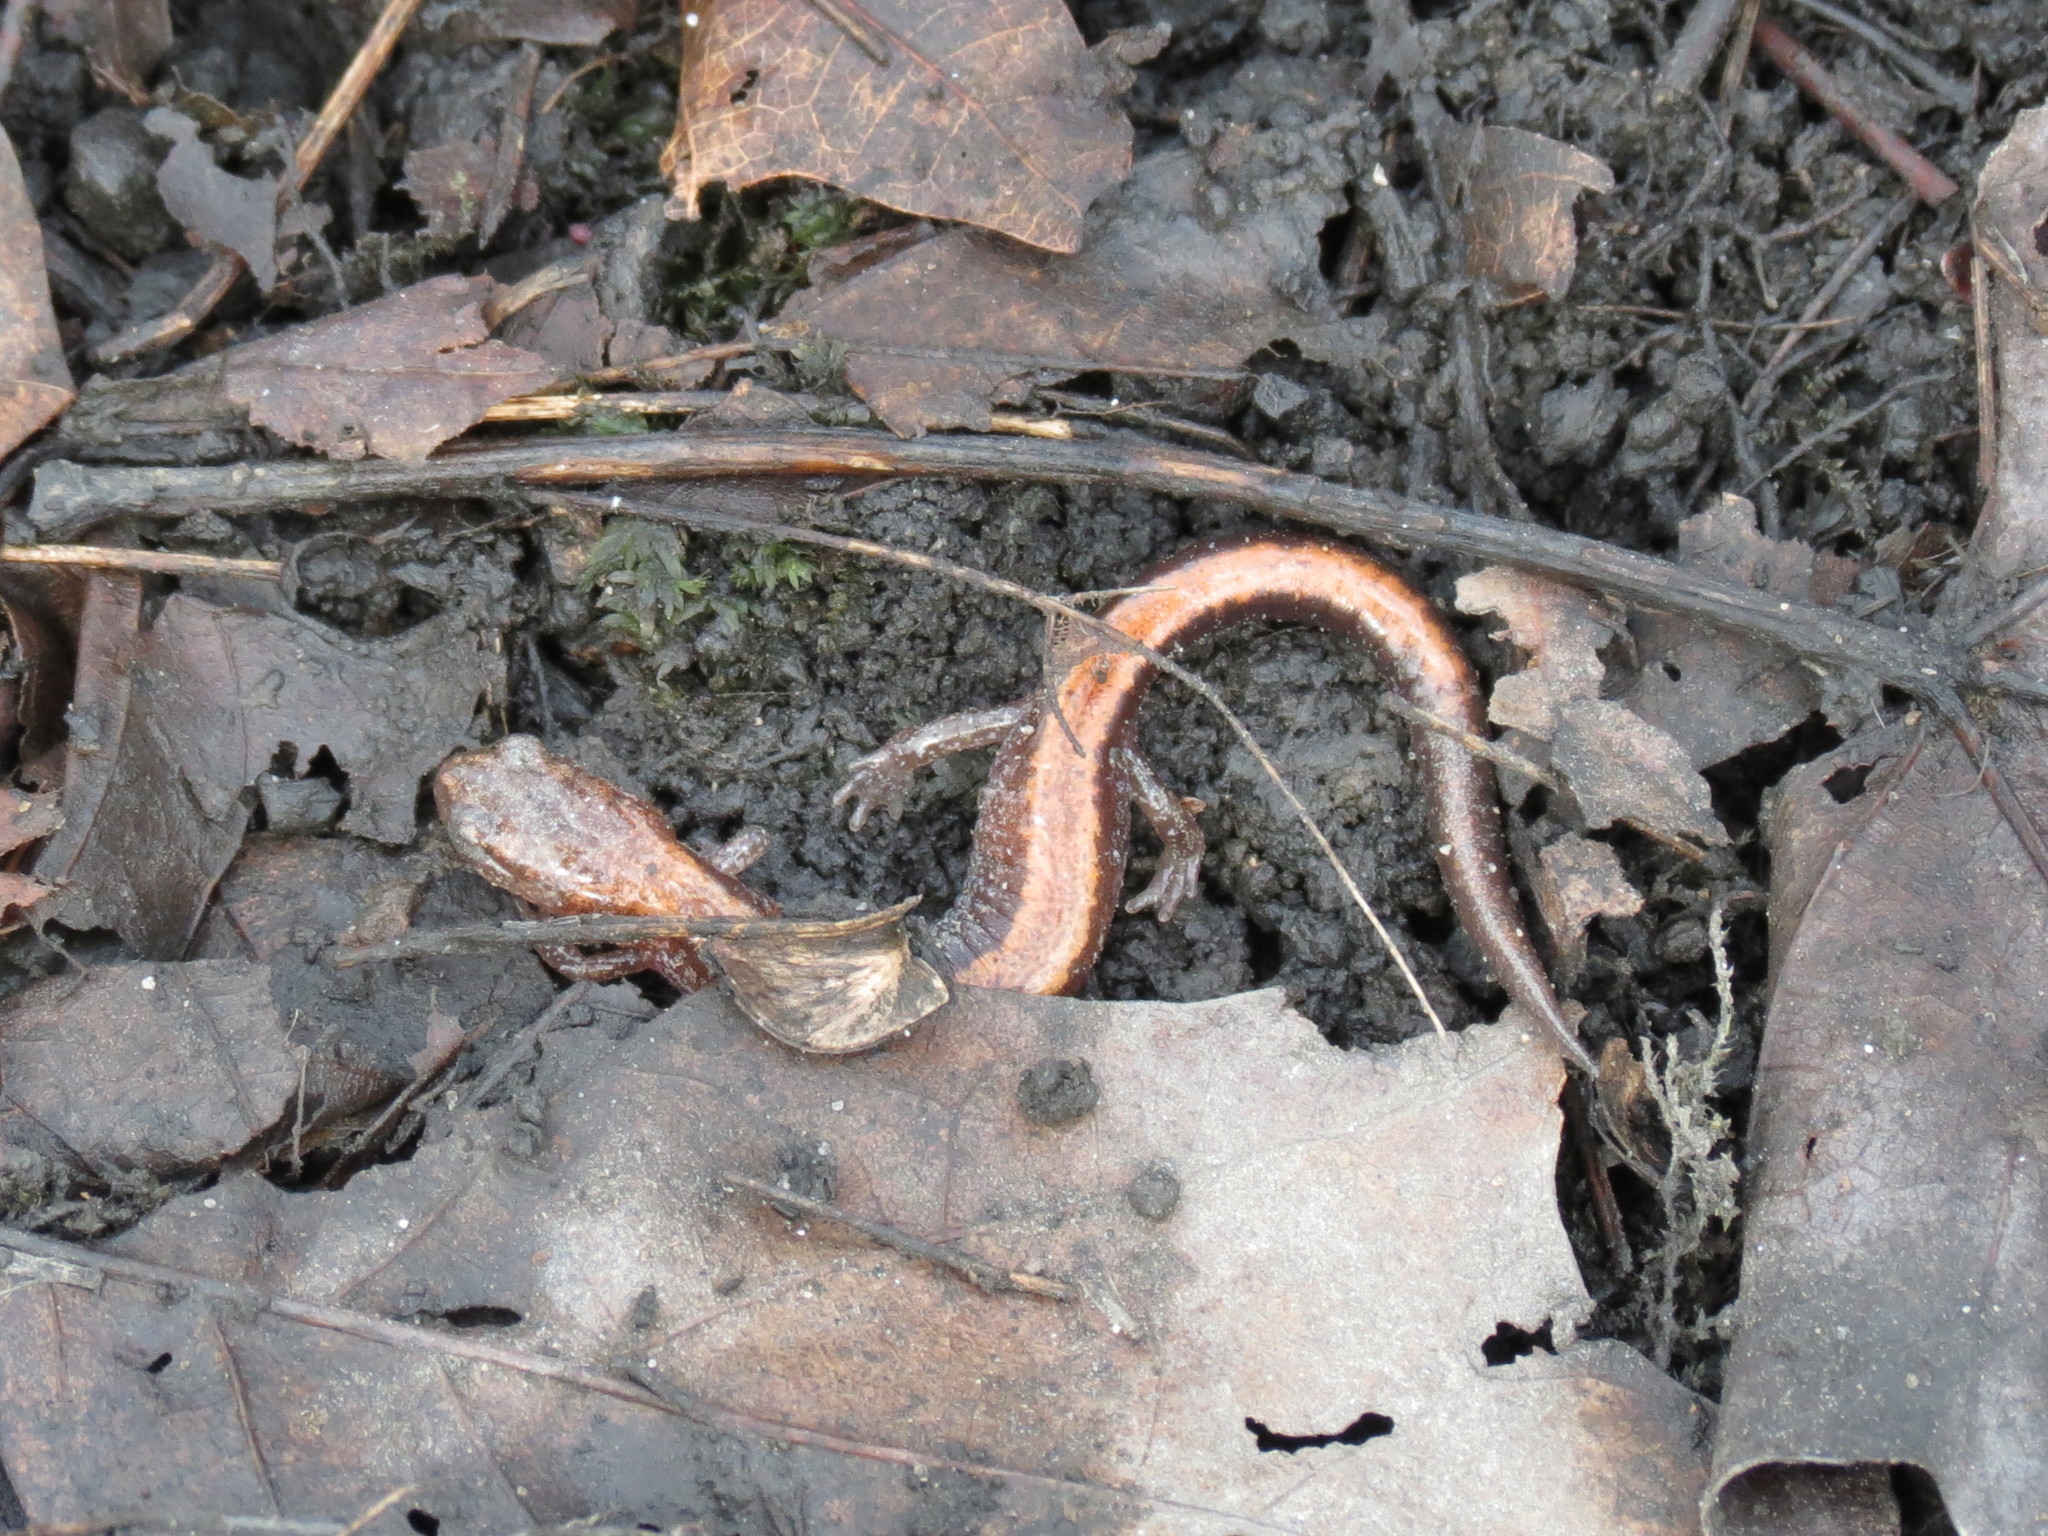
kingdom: Animalia
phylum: Chordata
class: Amphibia
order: Caudata
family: Plethodontidae
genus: Plethodon
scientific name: Plethodon cinereus
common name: Redback salamander
